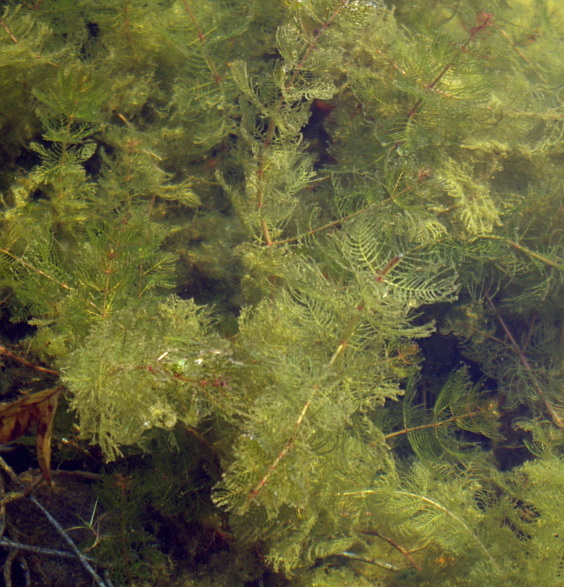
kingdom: Plantae
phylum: Tracheophyta
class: Magnoliopsida
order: Saxifragales
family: Haloragaceae
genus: Myriophyllum
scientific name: Myriophyllum sibiricum
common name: Siberian water-milfoil
